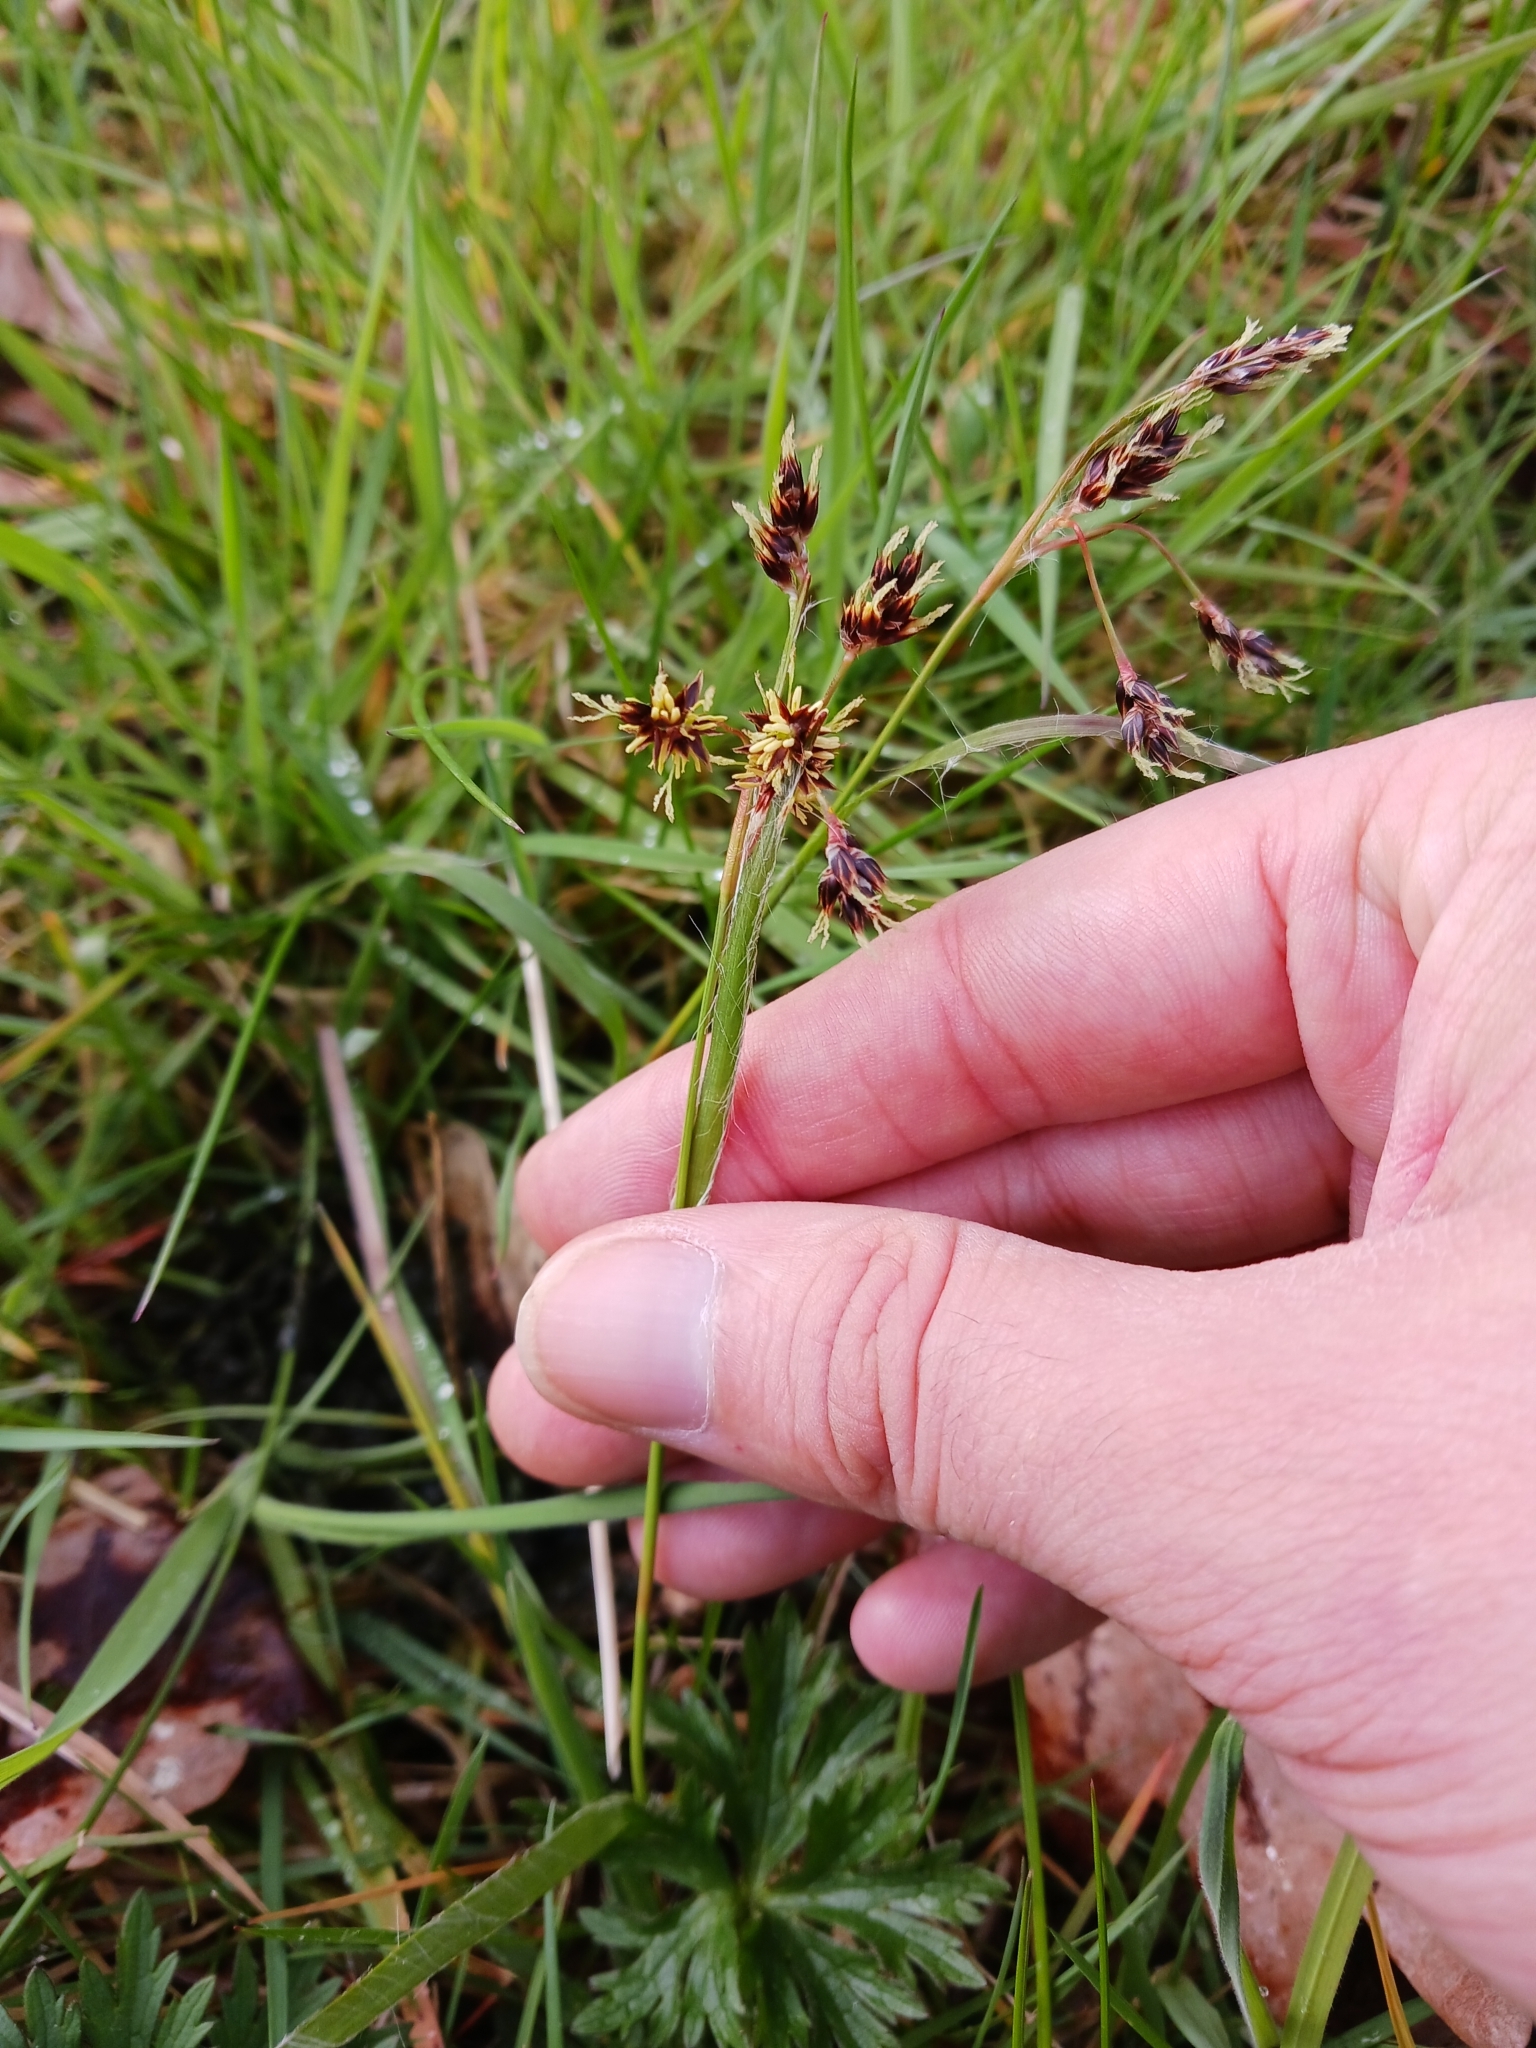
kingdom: Plantae
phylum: Tracheophyta
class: Liliopsida
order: Poales
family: Juncaceae
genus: Luzula
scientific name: Luzula campestris
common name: Field wood-rush
